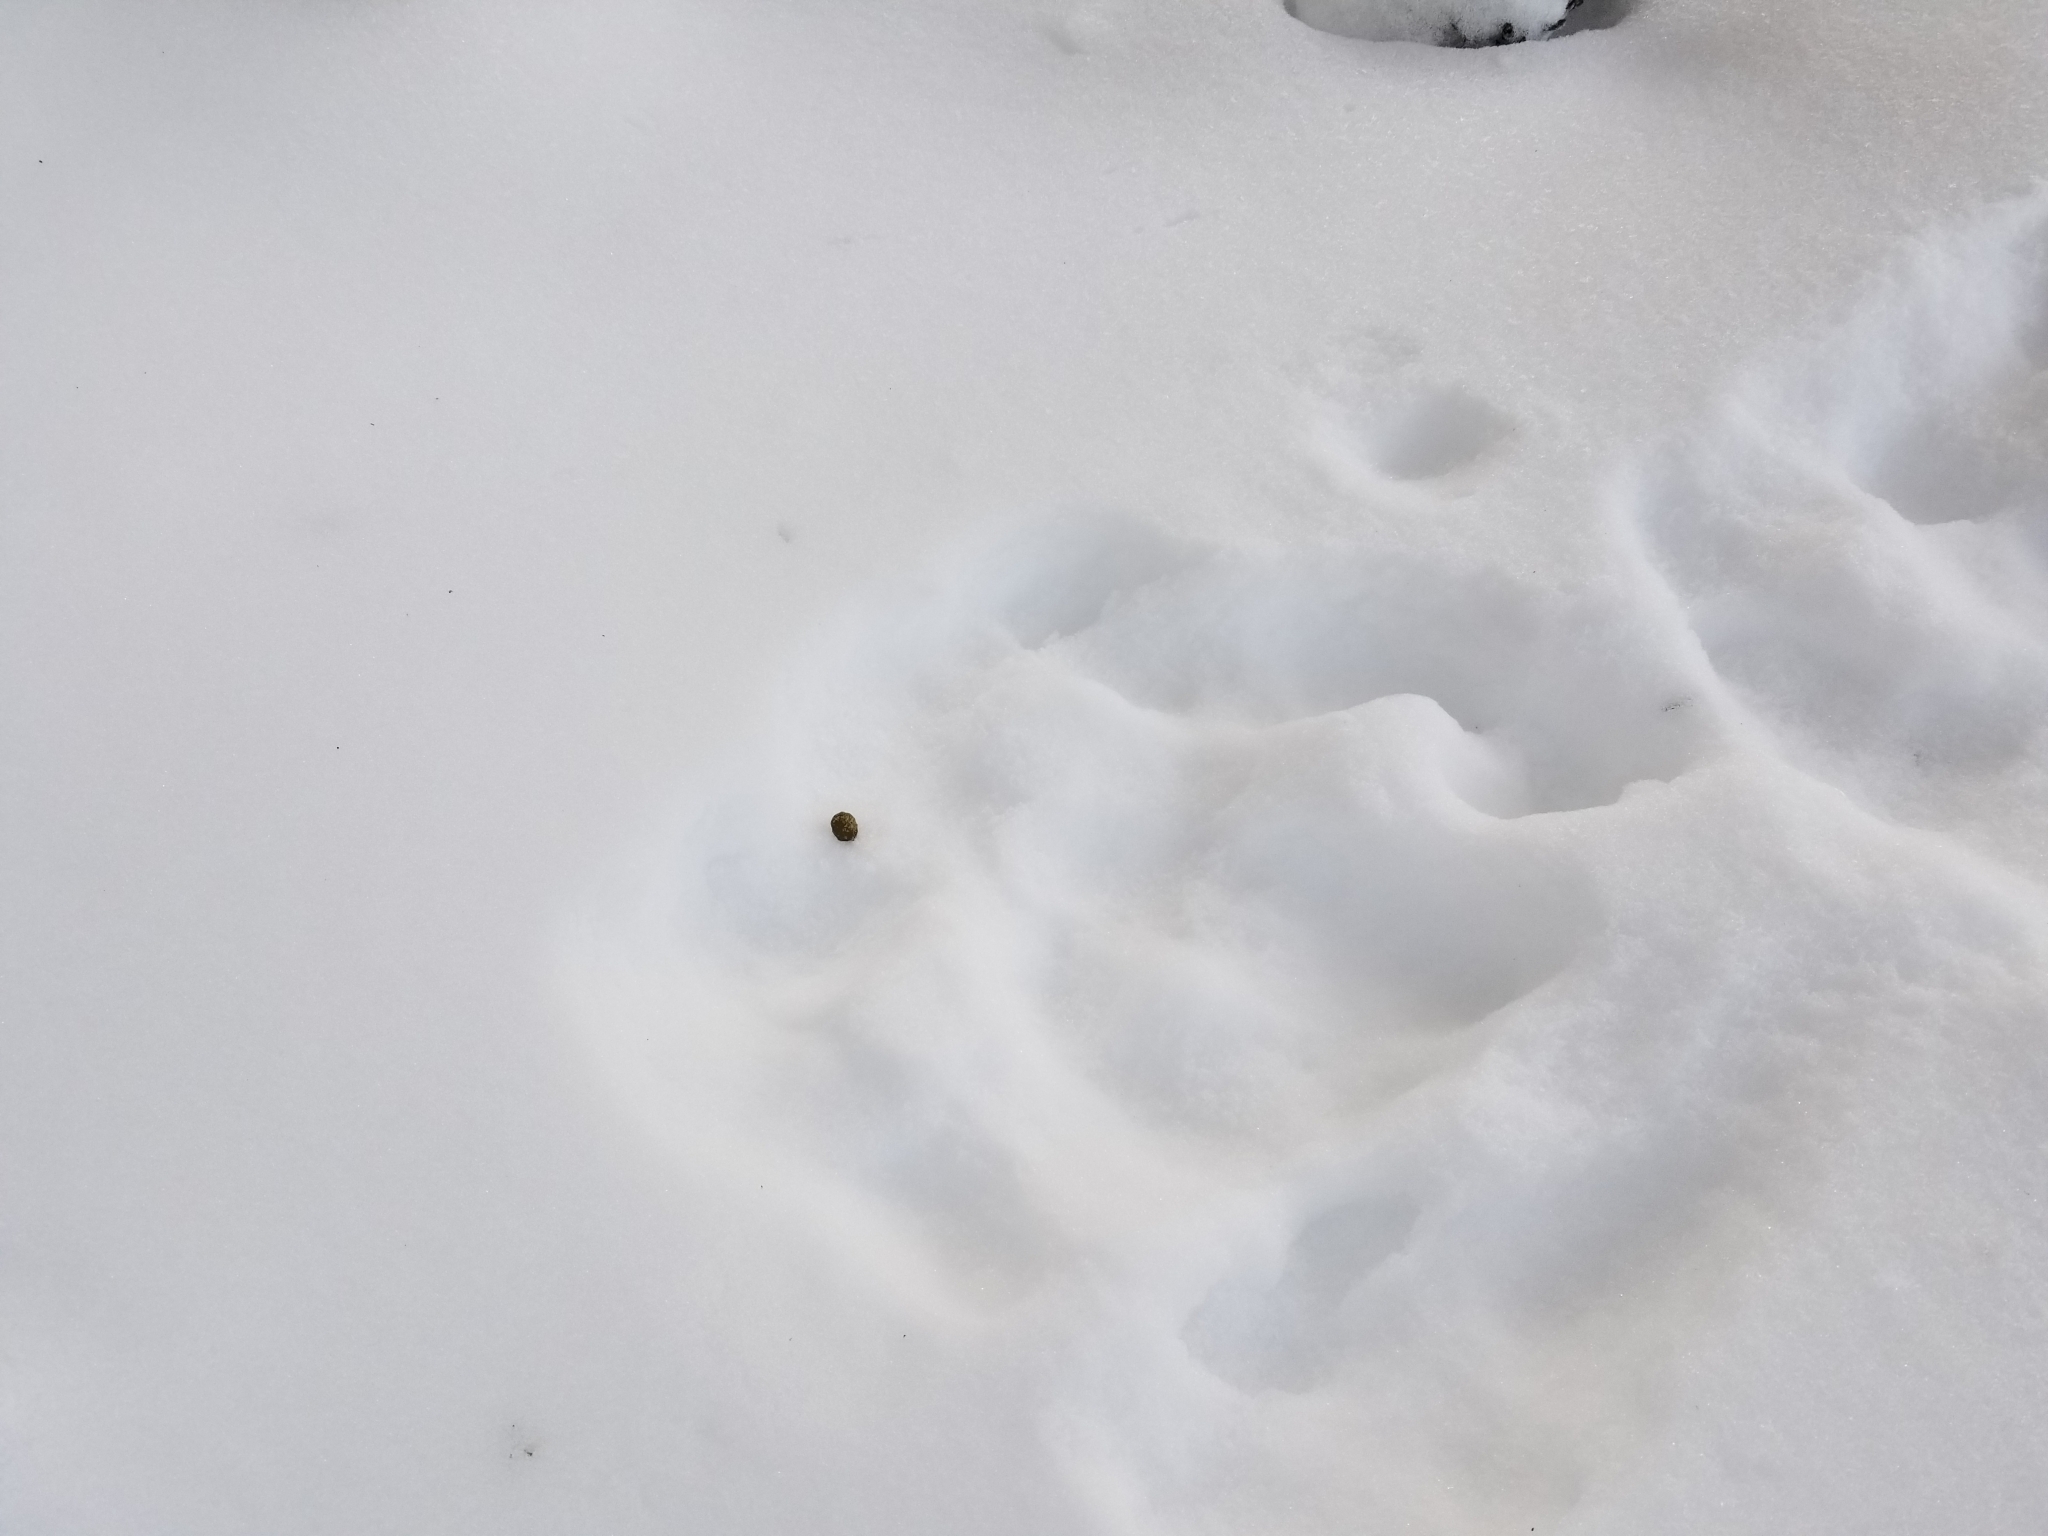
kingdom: Animalia
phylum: Chordata
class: Mammalia
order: Lagomorpha
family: Leporidae
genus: Lepus
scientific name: Lepus americanus
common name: Snowshoe hare
